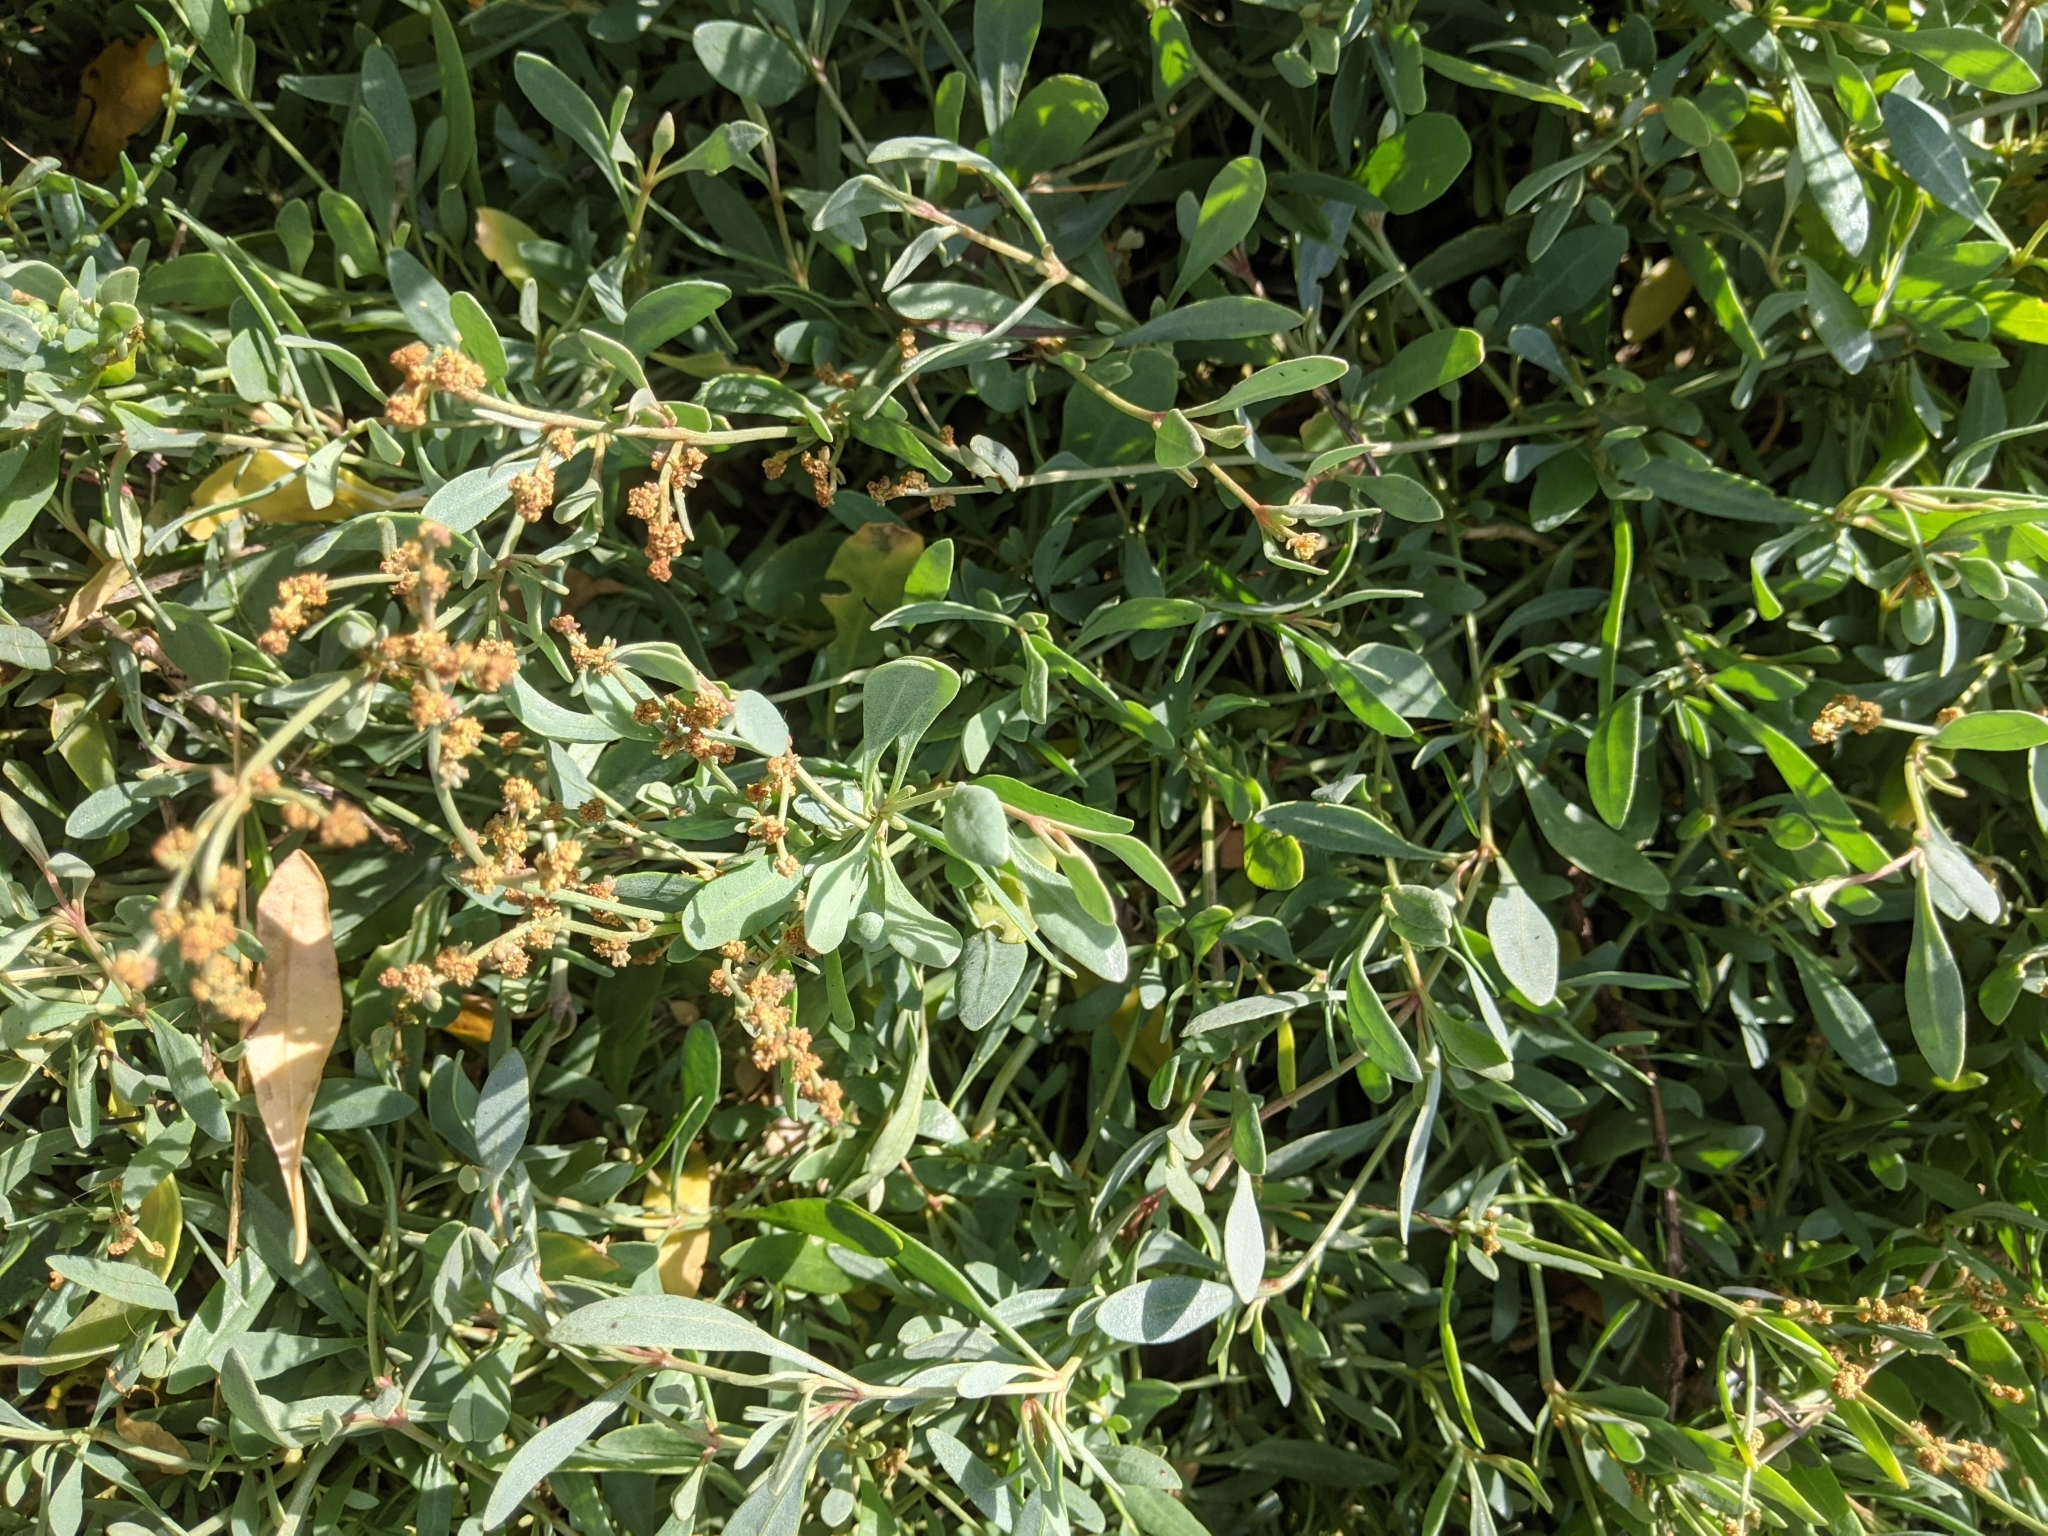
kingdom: Plantae
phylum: Tracheophyta
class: Magnoliopsida
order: Caryophyllales
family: Amaranthaceae
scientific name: Amaranthaceae
